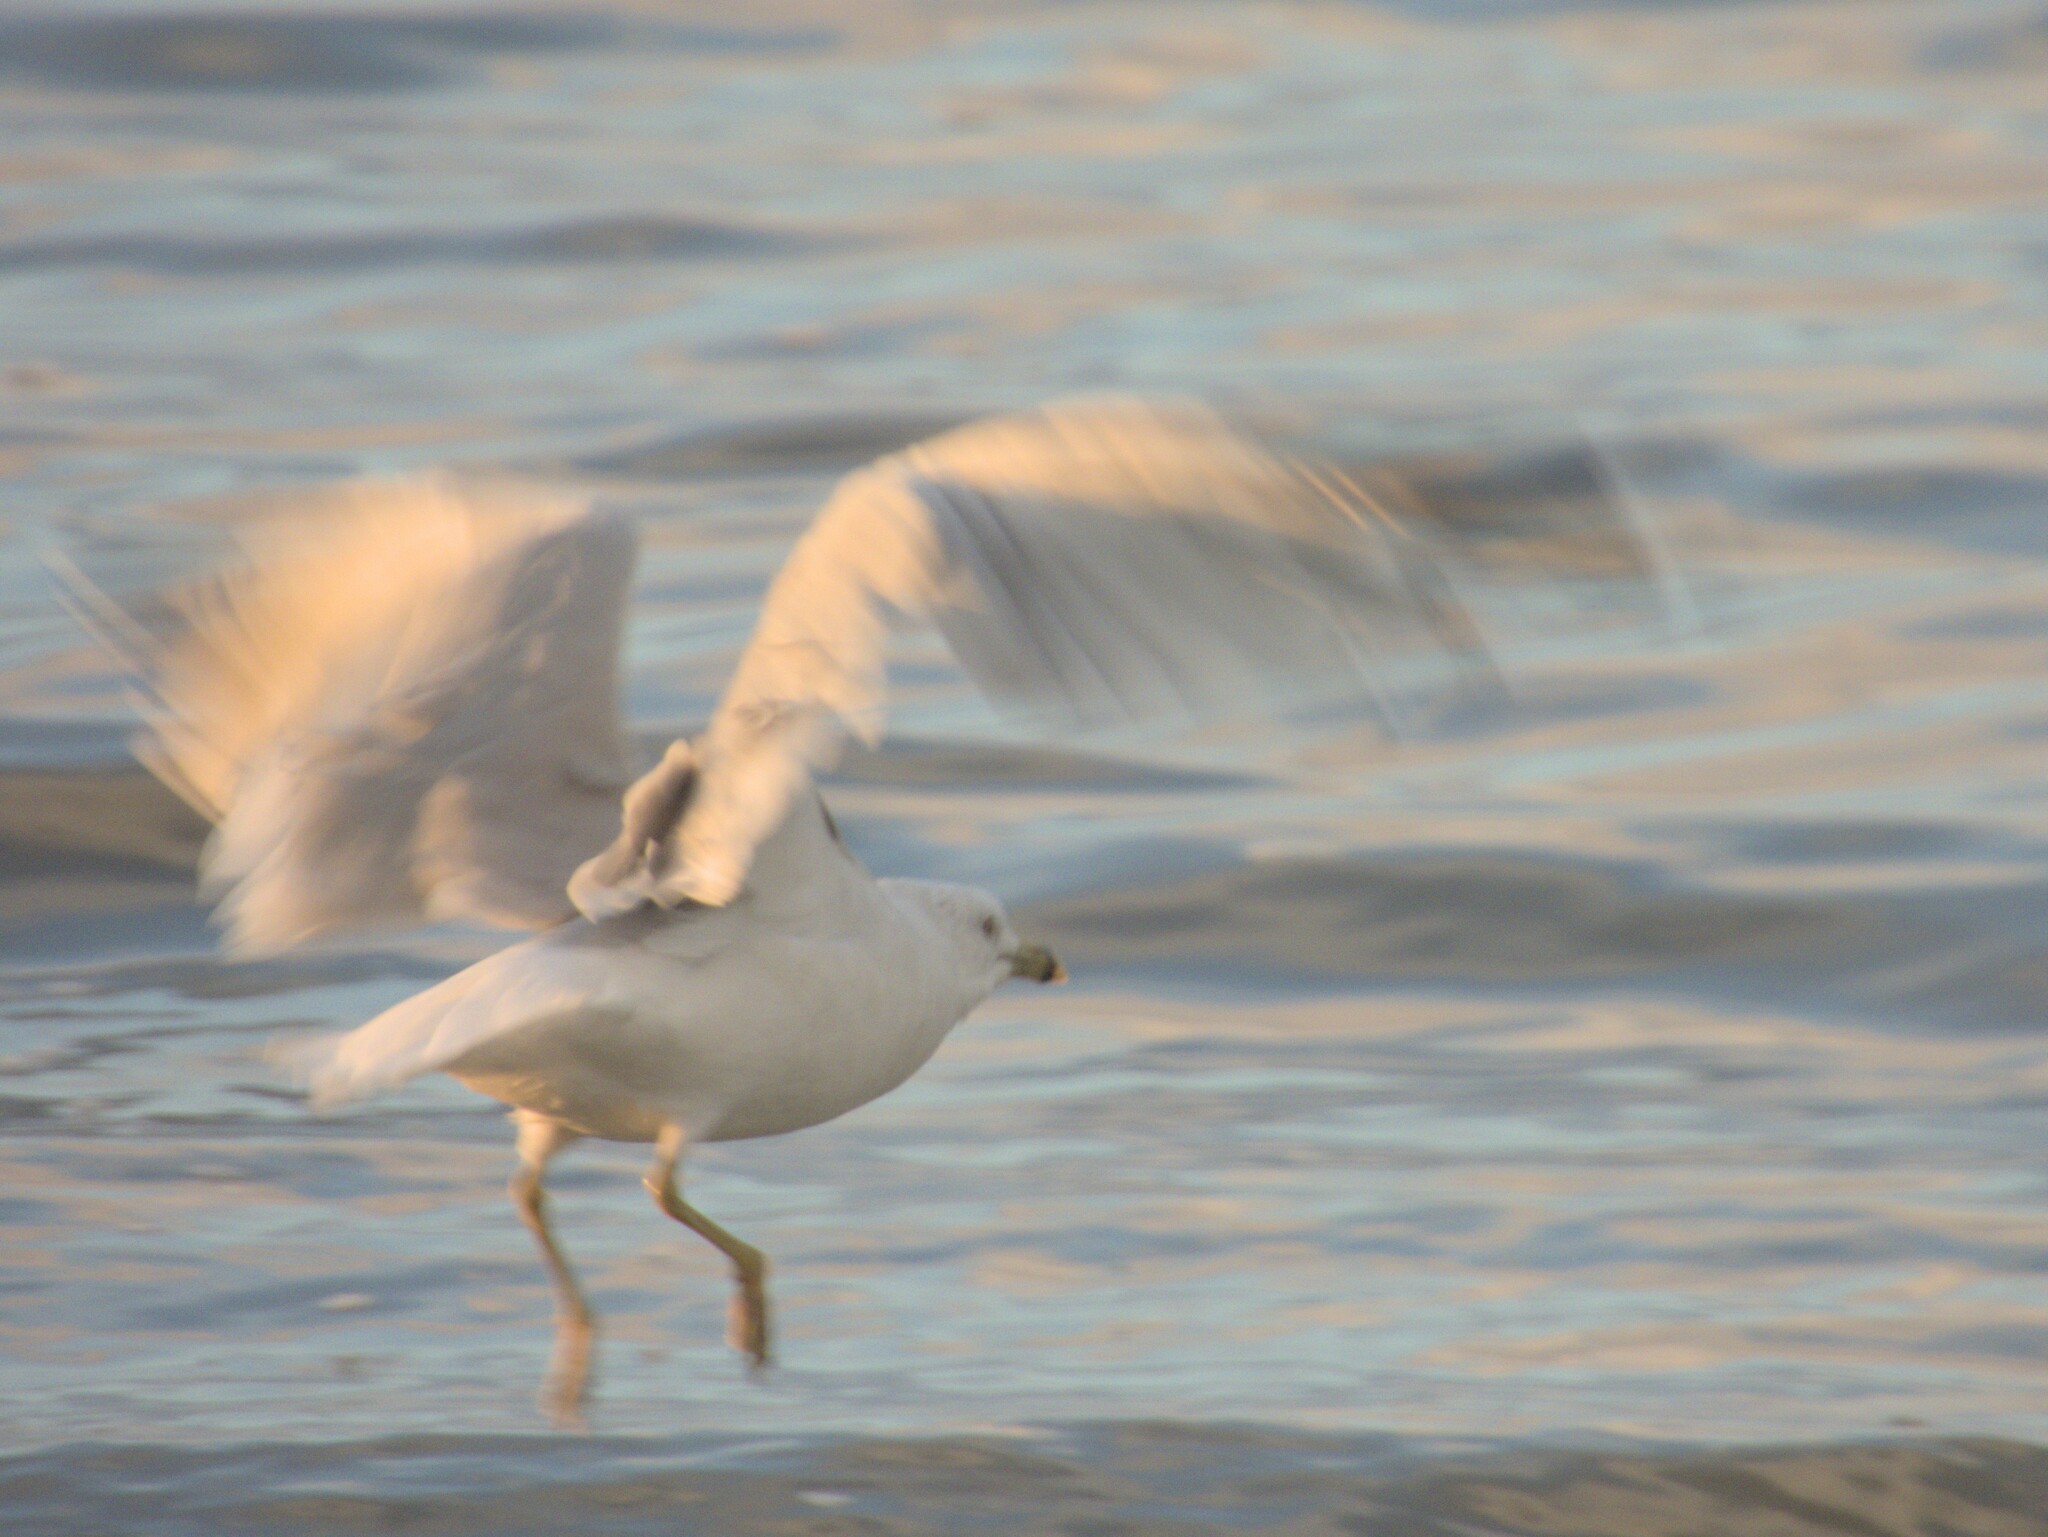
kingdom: Animalia
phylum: Chordata
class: Aves
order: Charadriiformes
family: Laridae
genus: Larus
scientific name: Larus delawarensis
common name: Ring-billed gull
